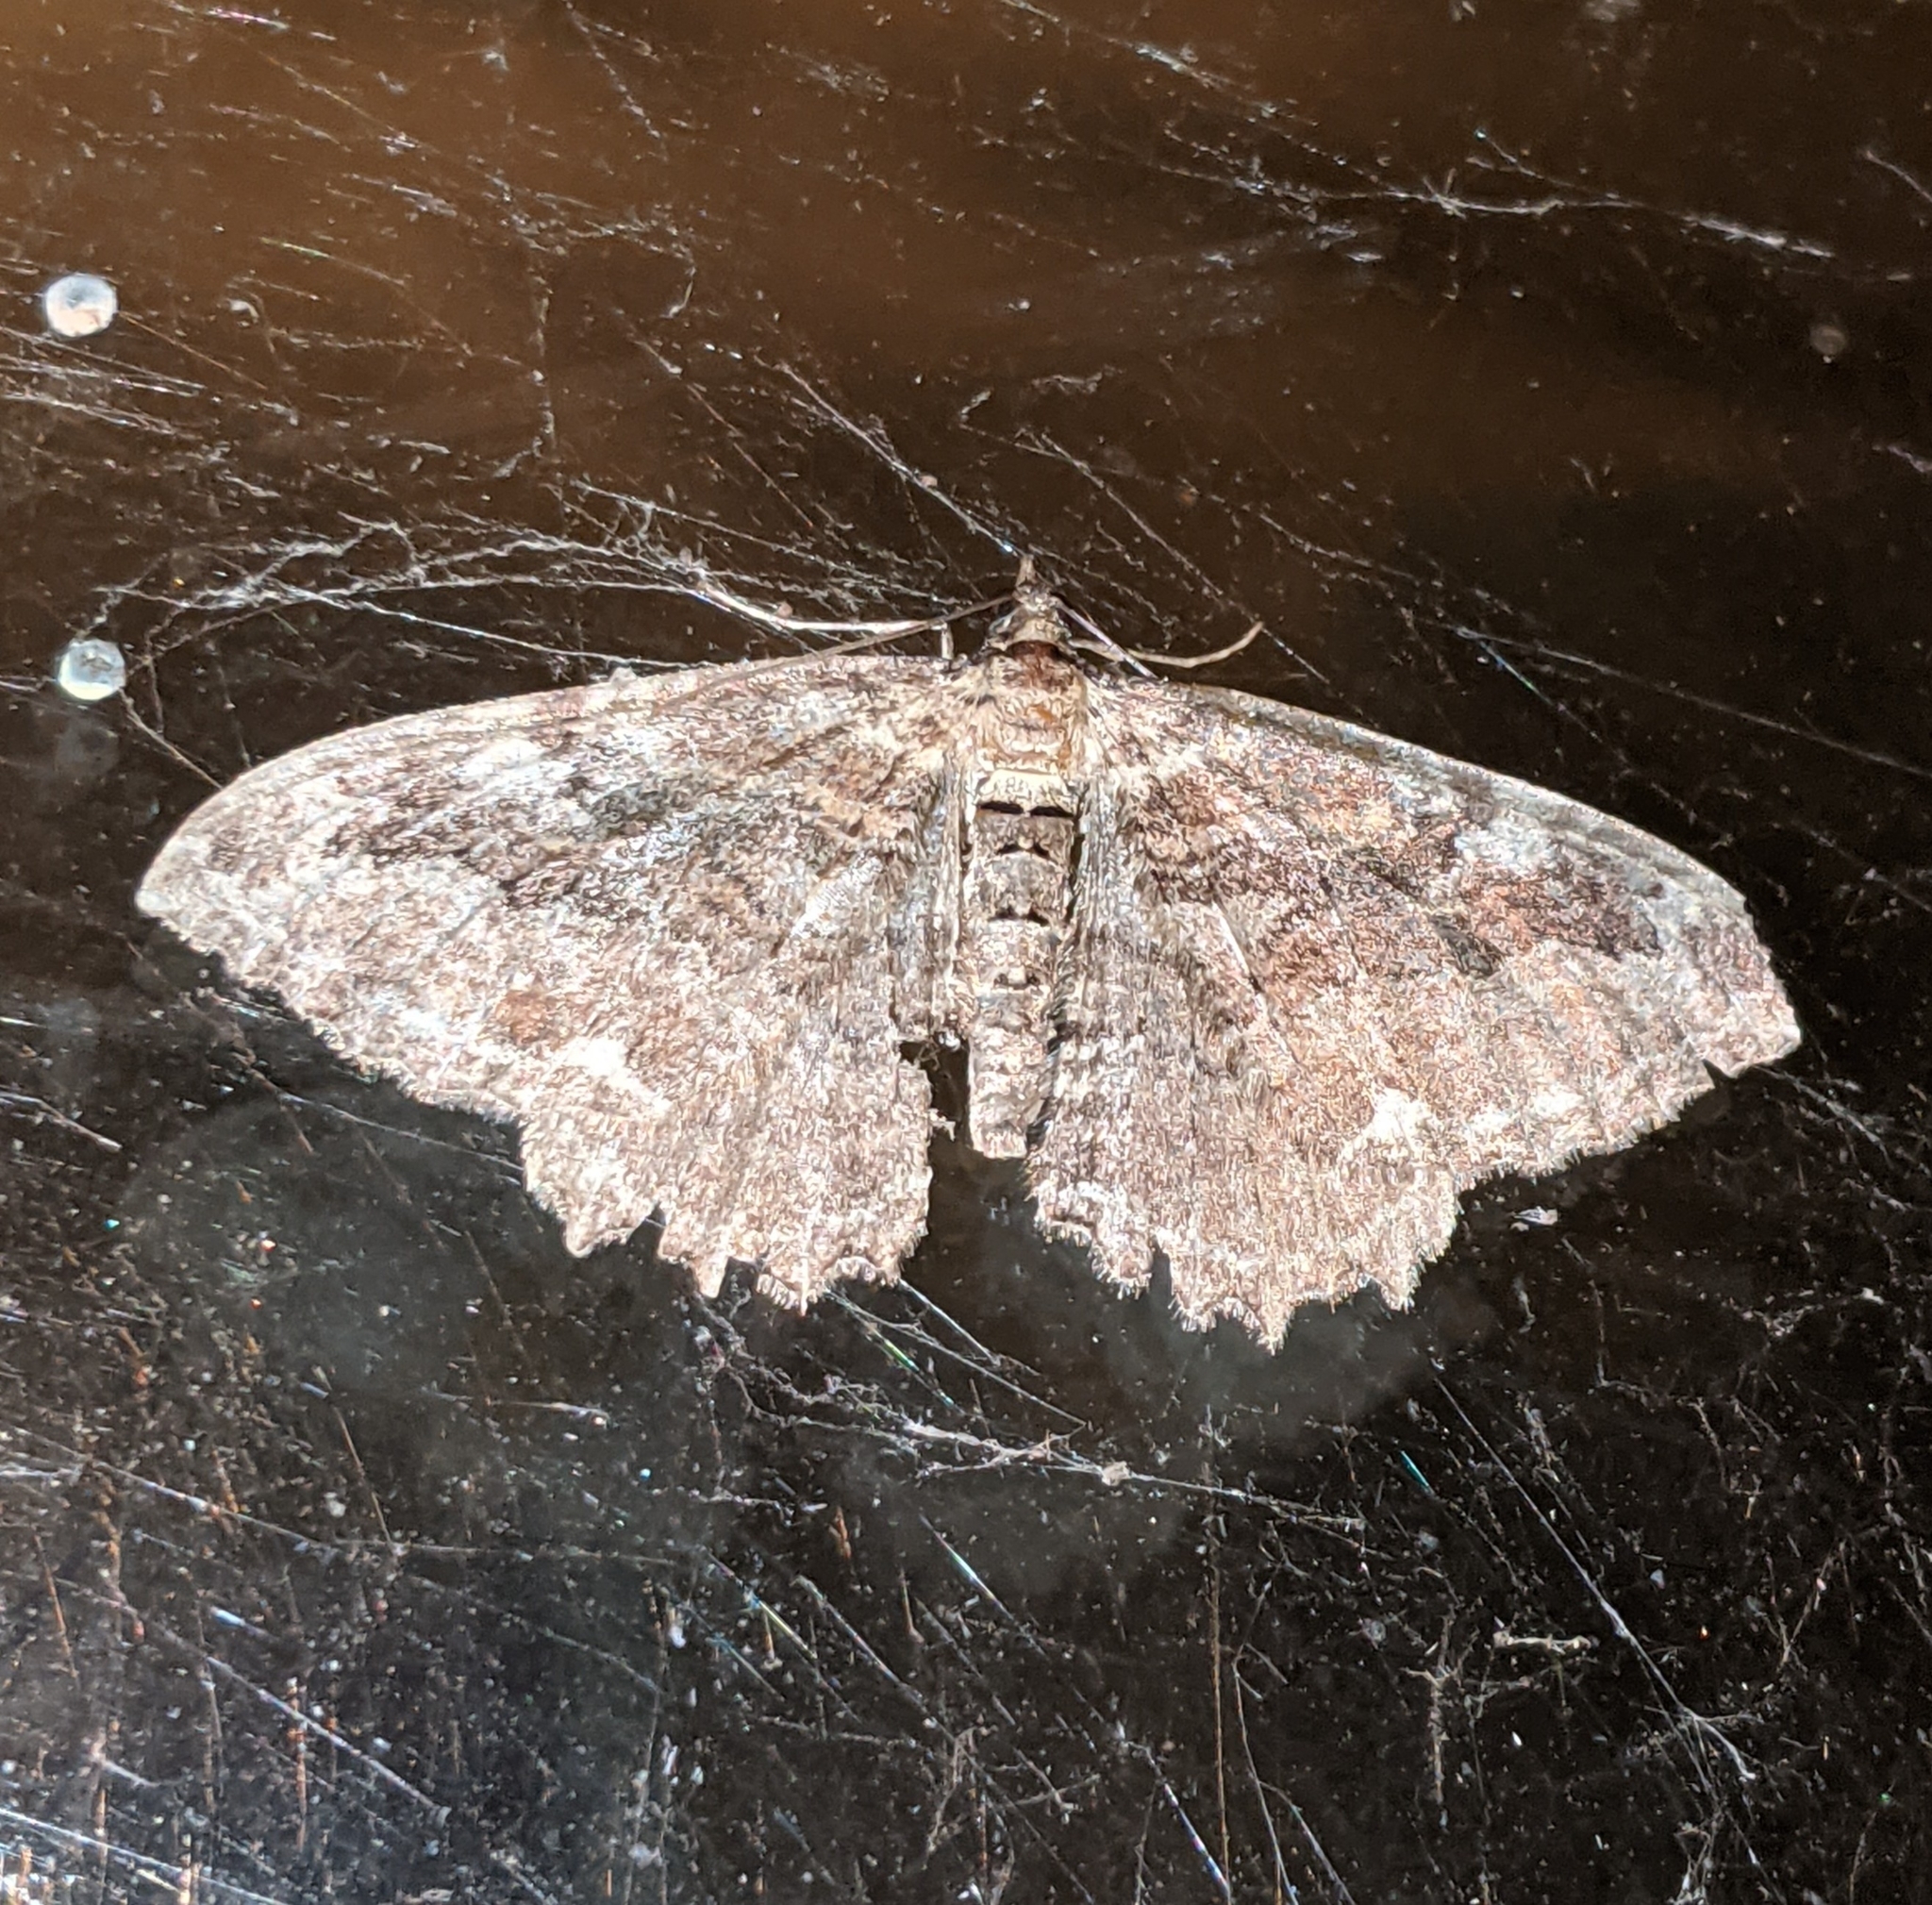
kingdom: Animalia
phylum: Arthropoda
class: Insecta
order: Lepidoptera
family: Geometridae
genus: Rheumaptera
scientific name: Rheumaptera
